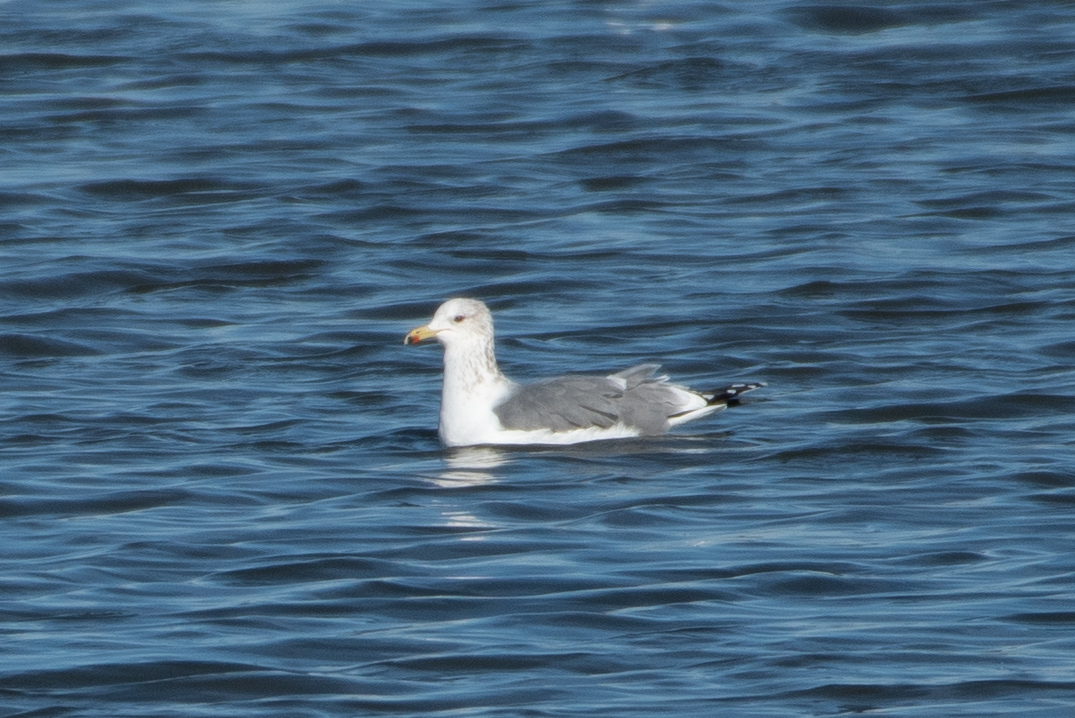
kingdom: Animalia
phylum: Chordata
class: Aves
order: Charadriiformes
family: Laridae
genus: Larus
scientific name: Larus californicus
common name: California gull
